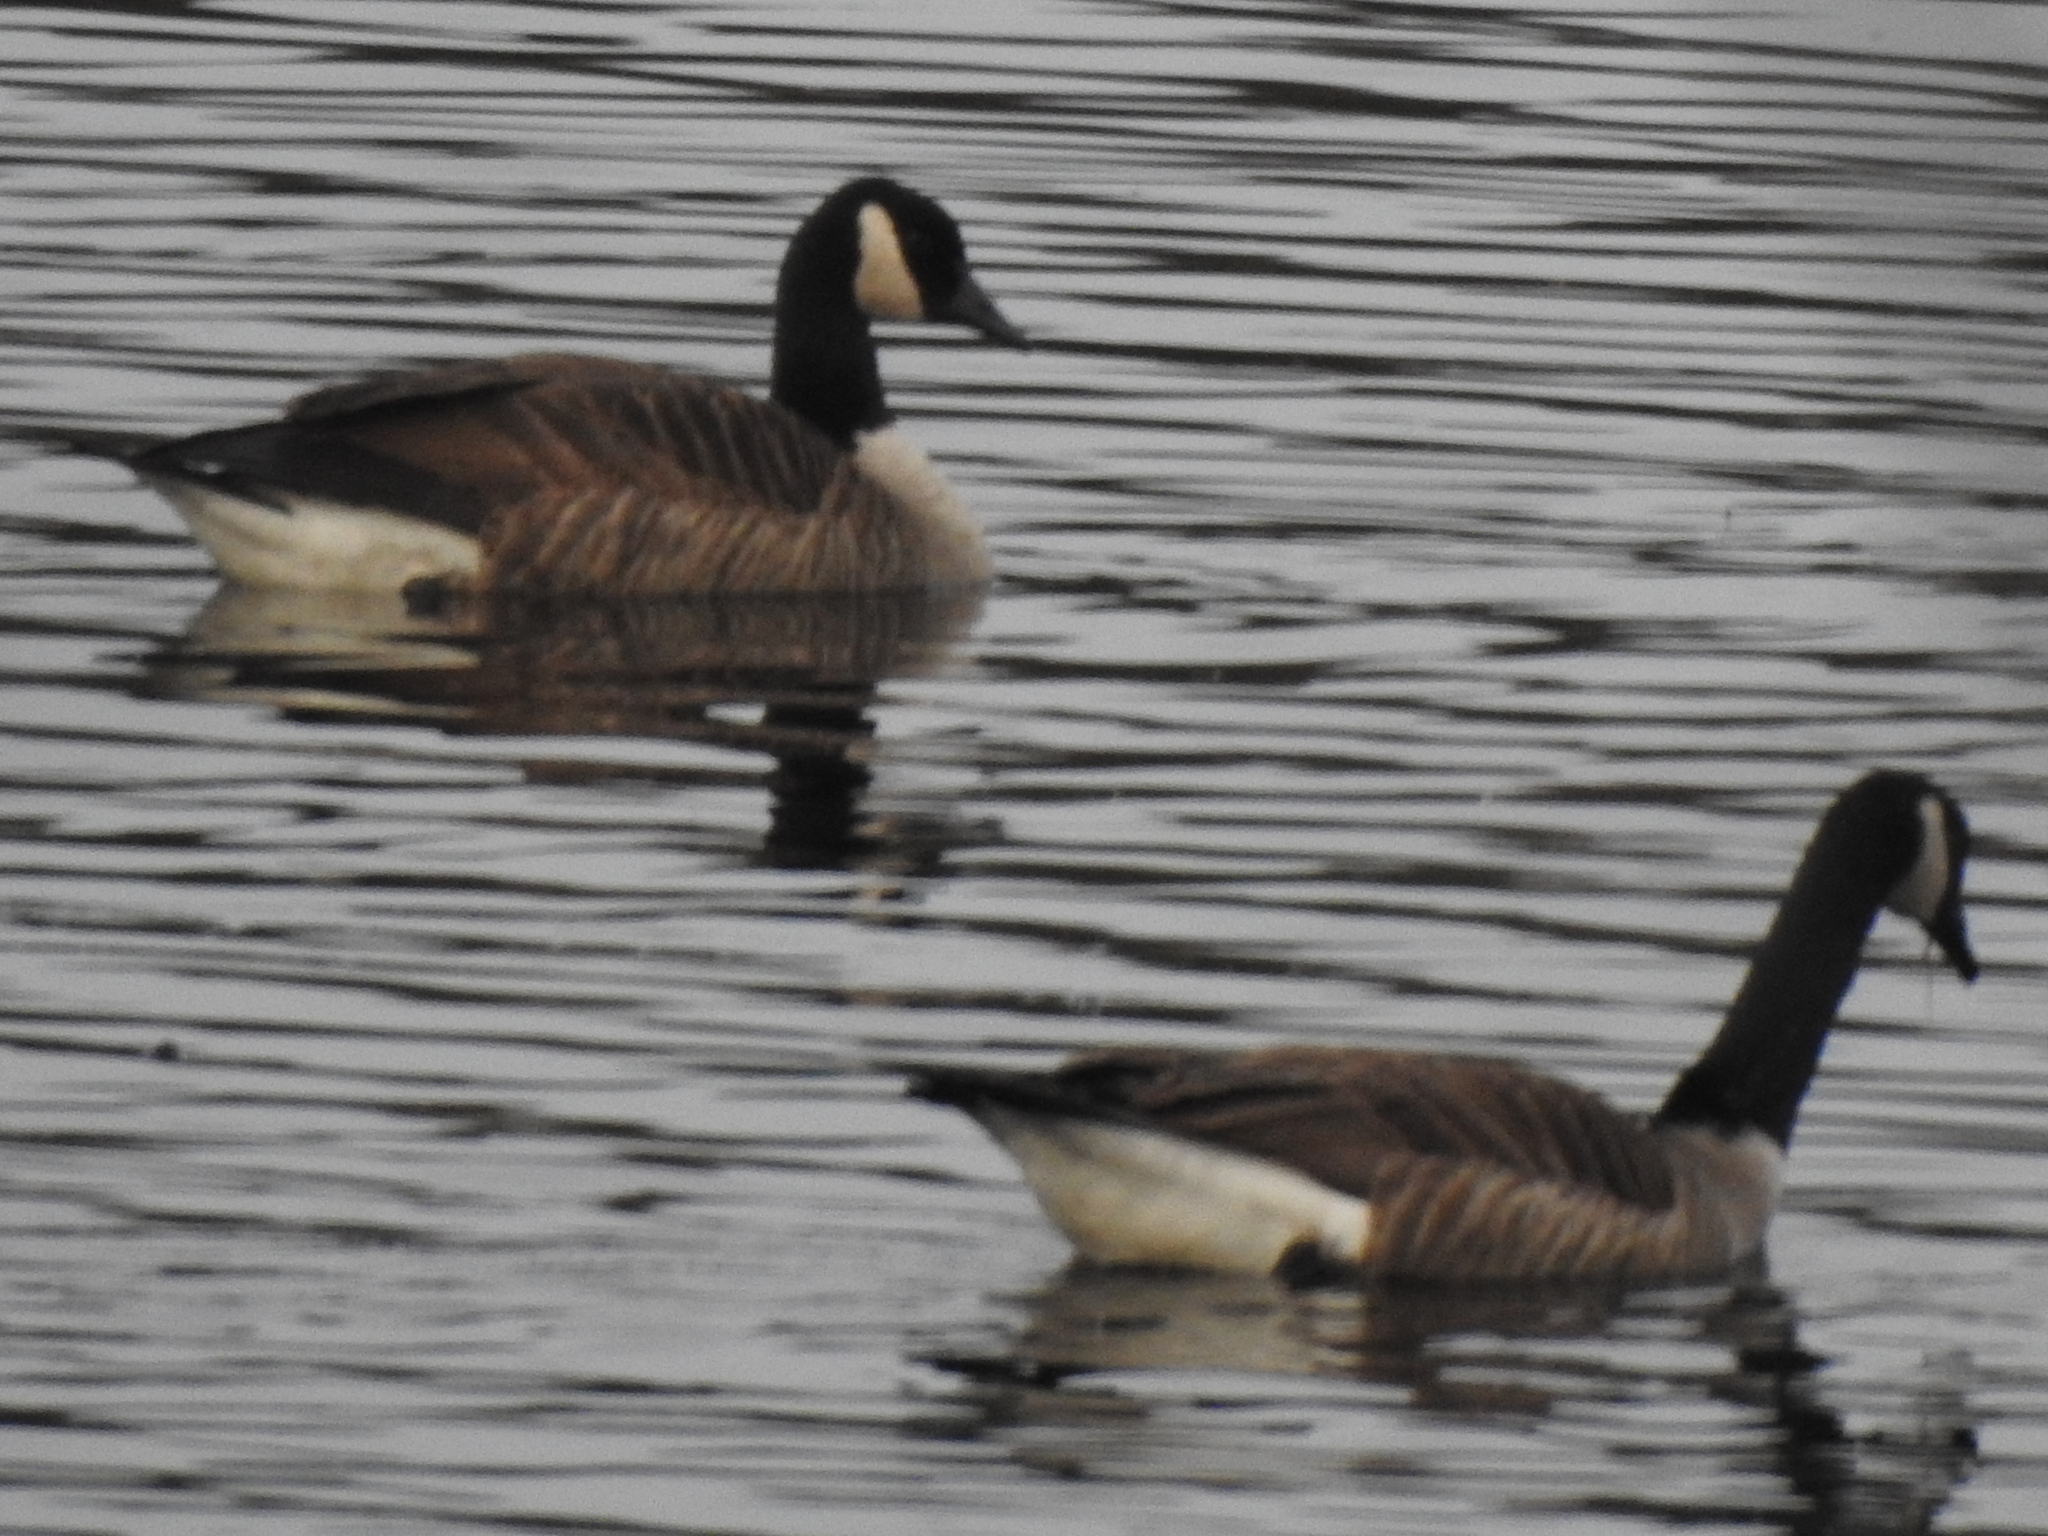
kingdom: Animalia
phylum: Chordata
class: Aves
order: Anseriformes
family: Anatidae
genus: Branta
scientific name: Branta canadensis
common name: Canada goose
